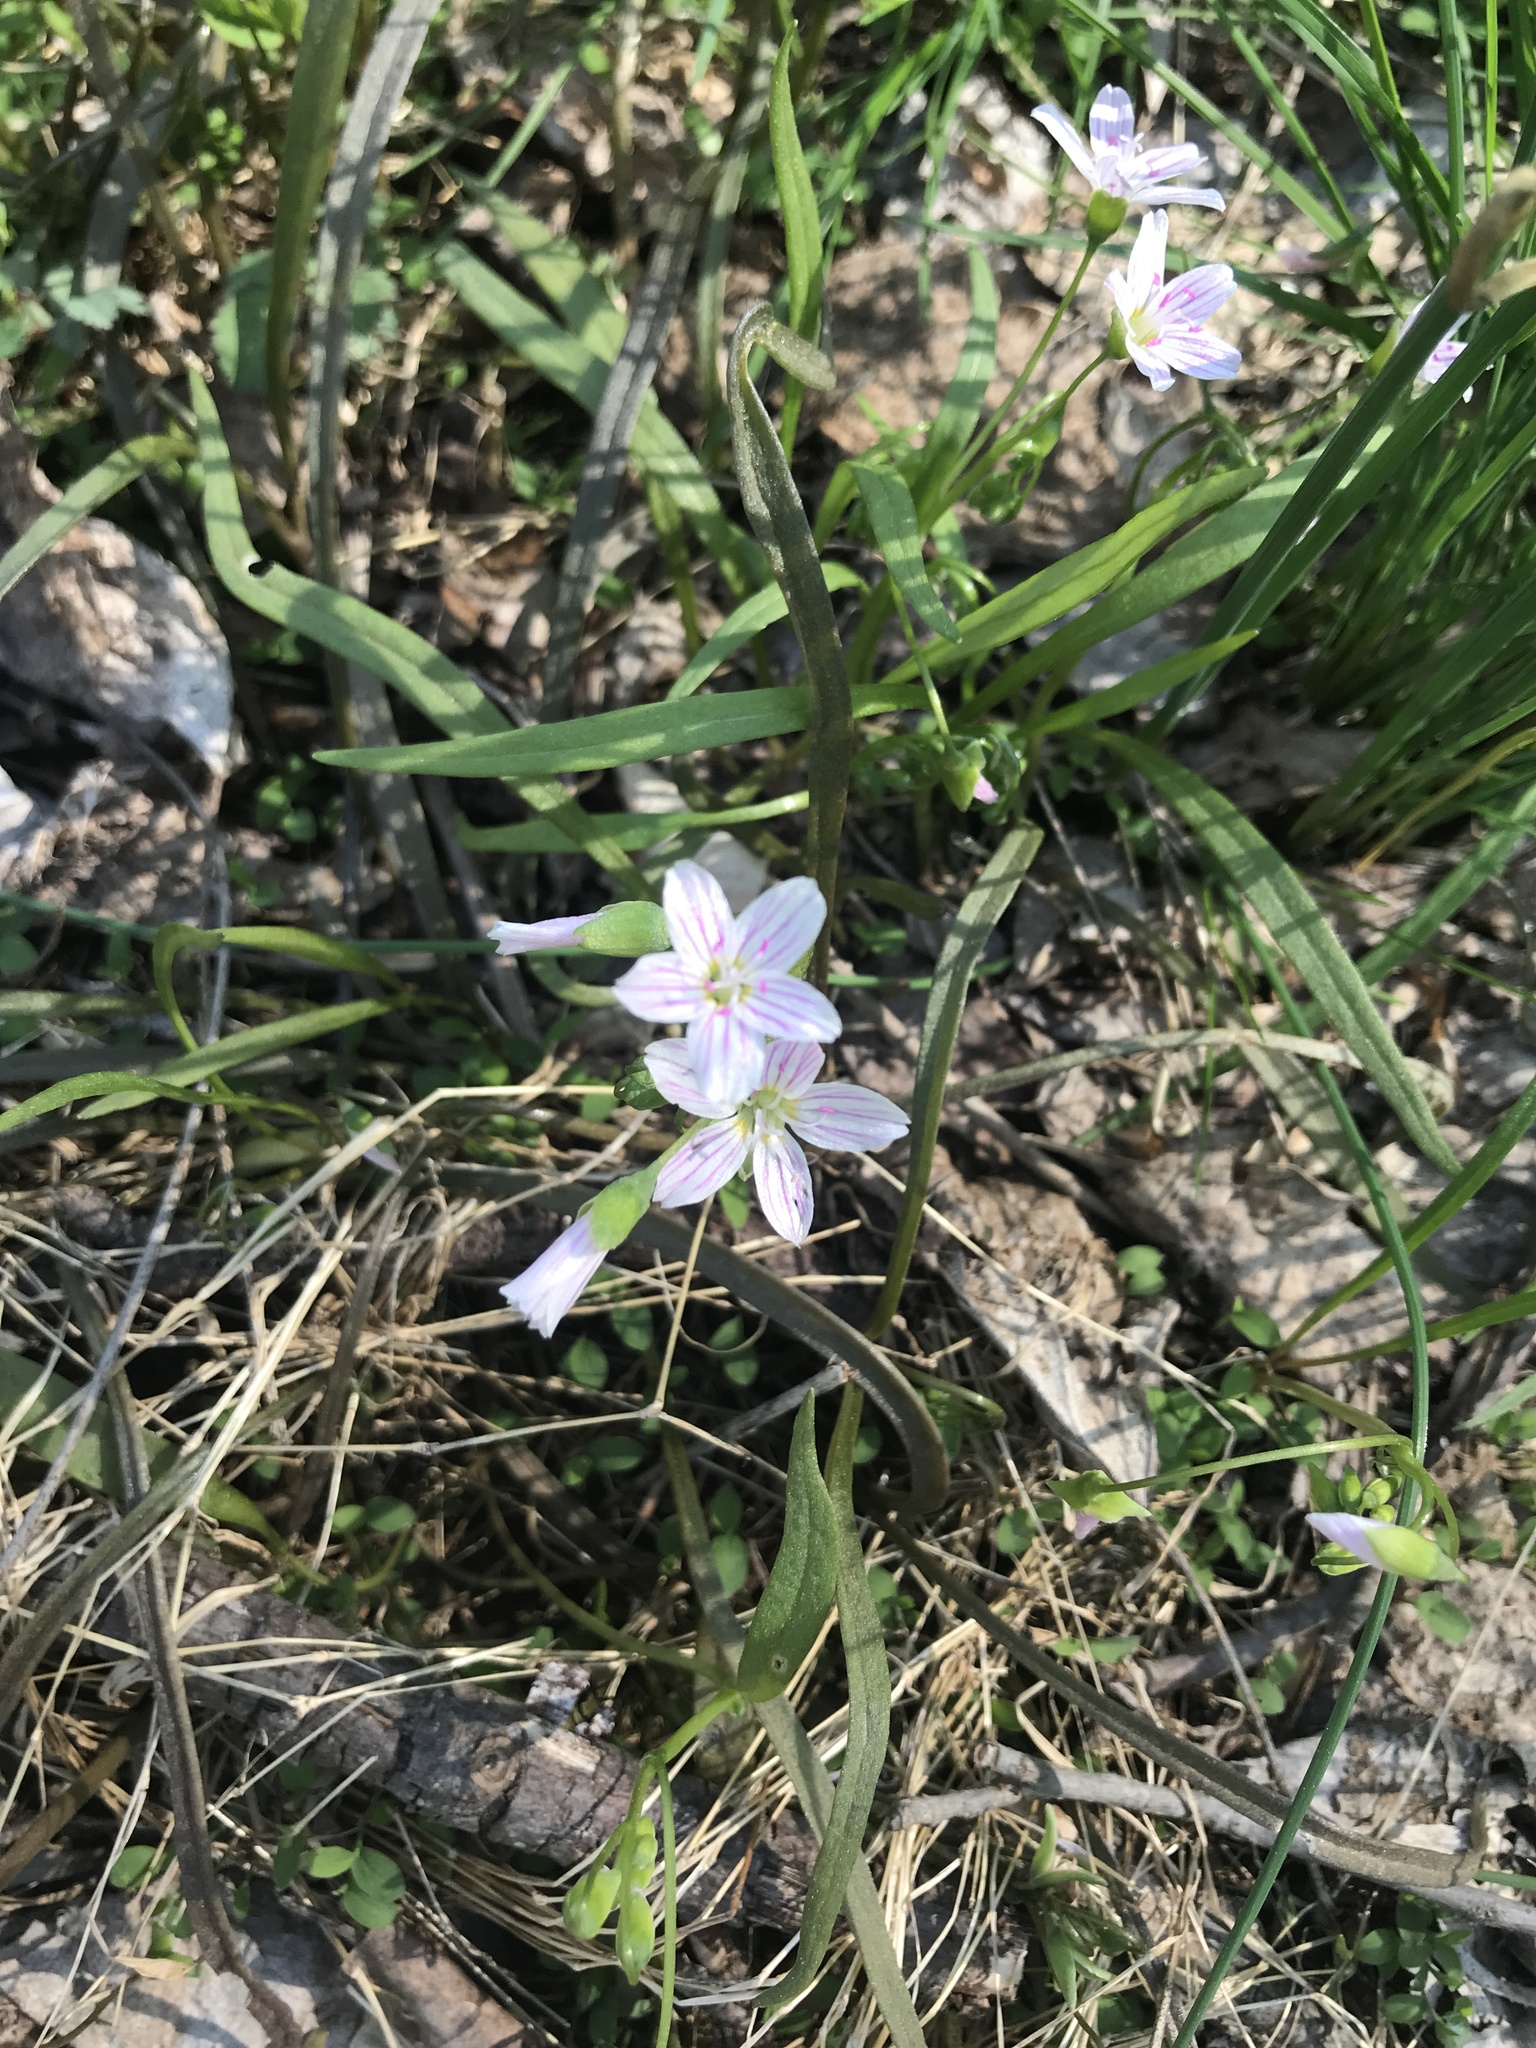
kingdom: Plantae
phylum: Tracheophyta
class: Magnoliopsida
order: Caryophyllales
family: Montiaceae
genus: Claytonia
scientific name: Claytonia virginica
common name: Virginia springbeauty
